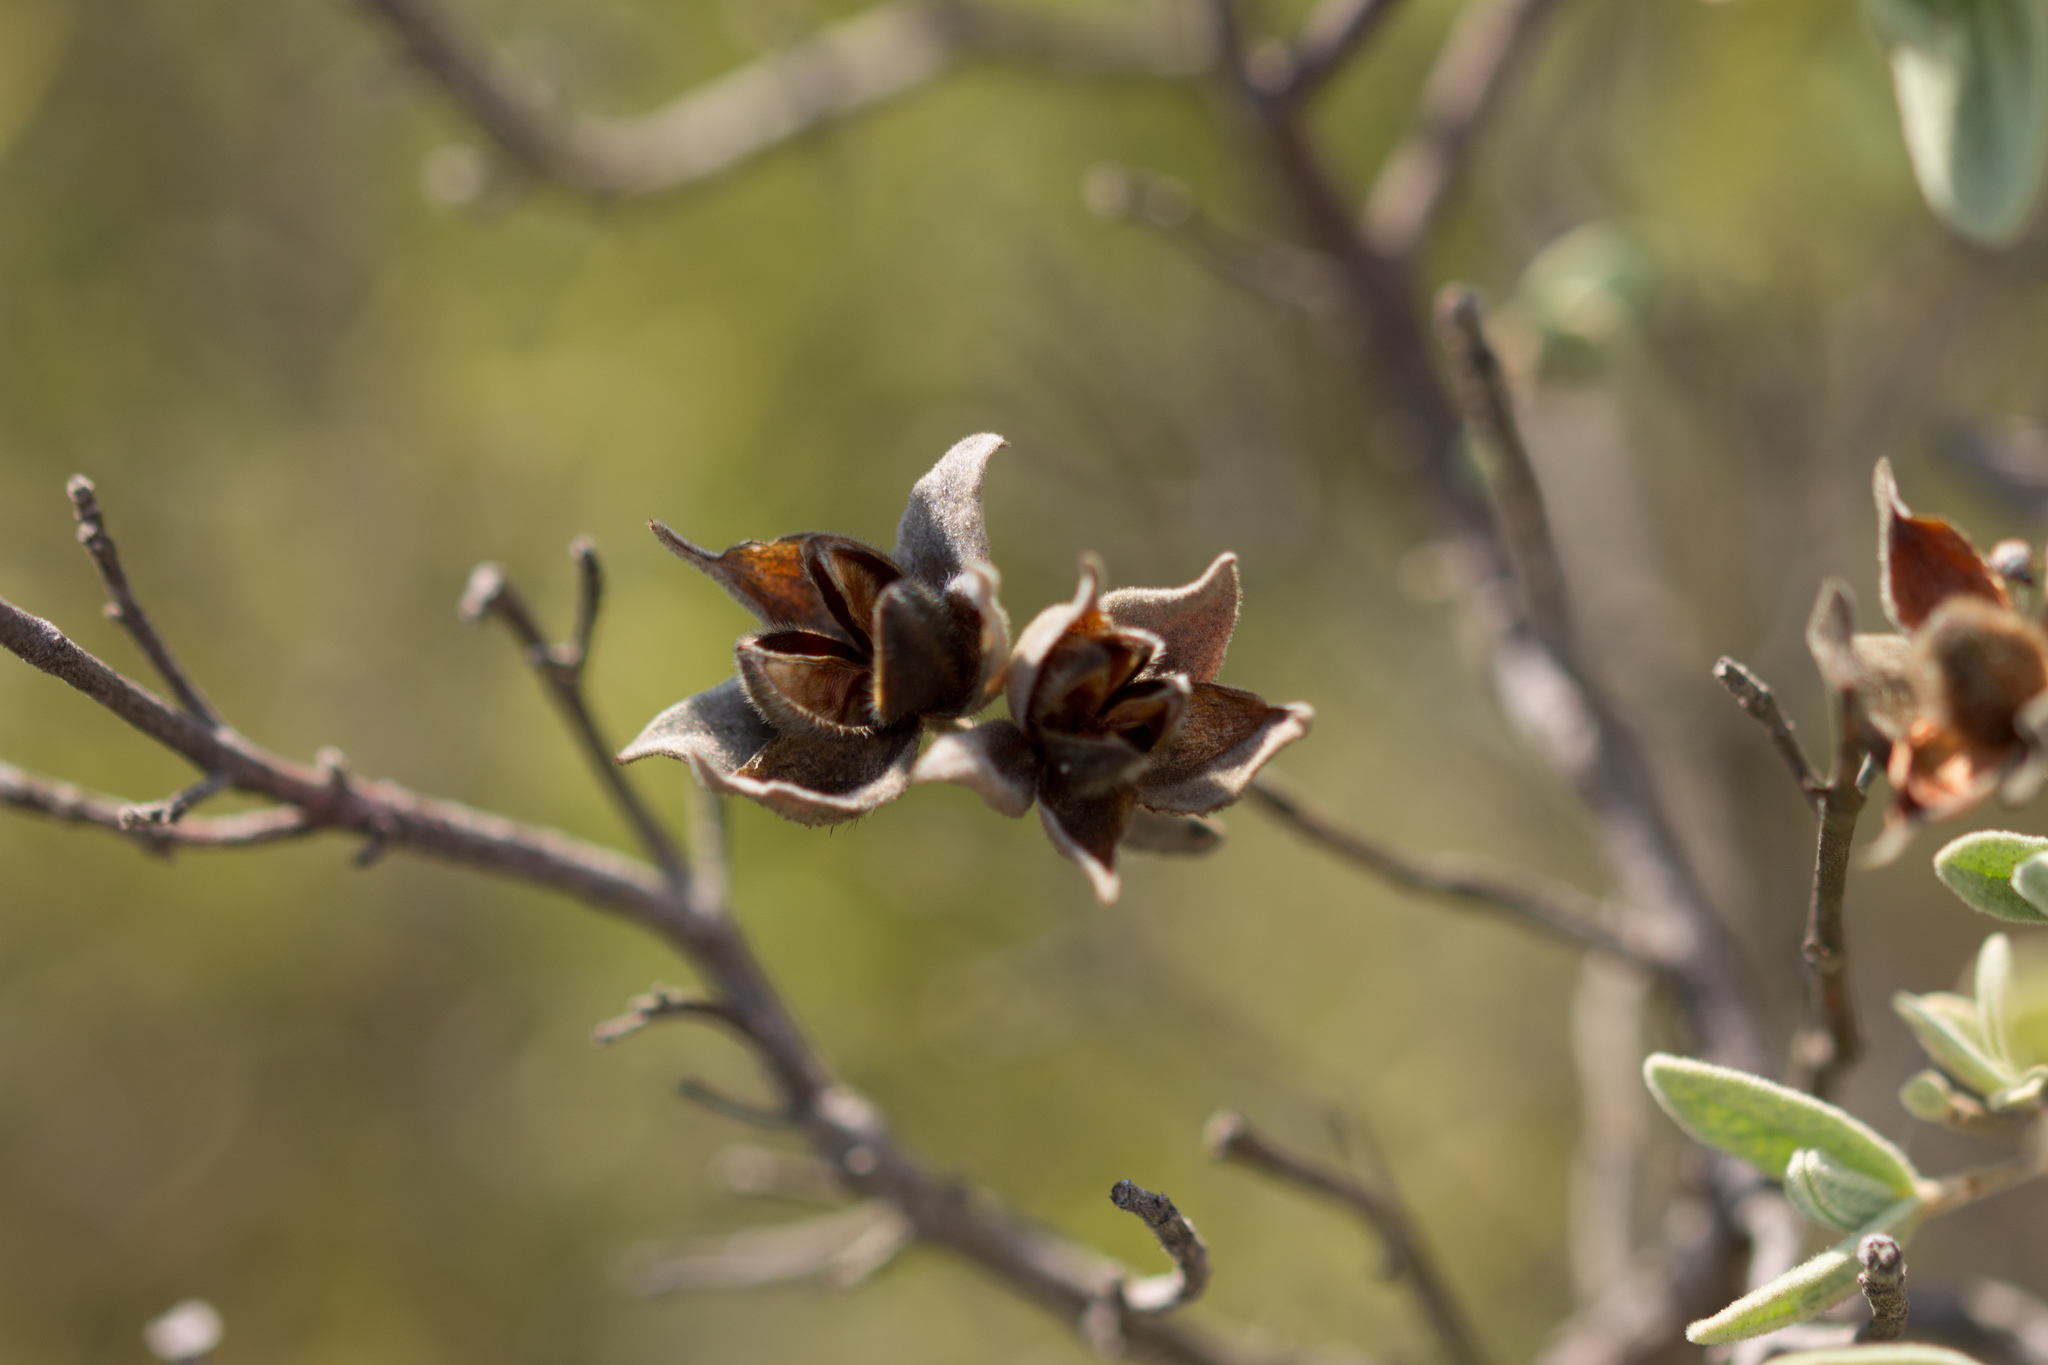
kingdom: Plantae
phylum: Tracheophyta
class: Magnoliopsida
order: Malvales
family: Cistaceae
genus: Cistus
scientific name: Cistus albidus
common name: White-leaf rock-rose
